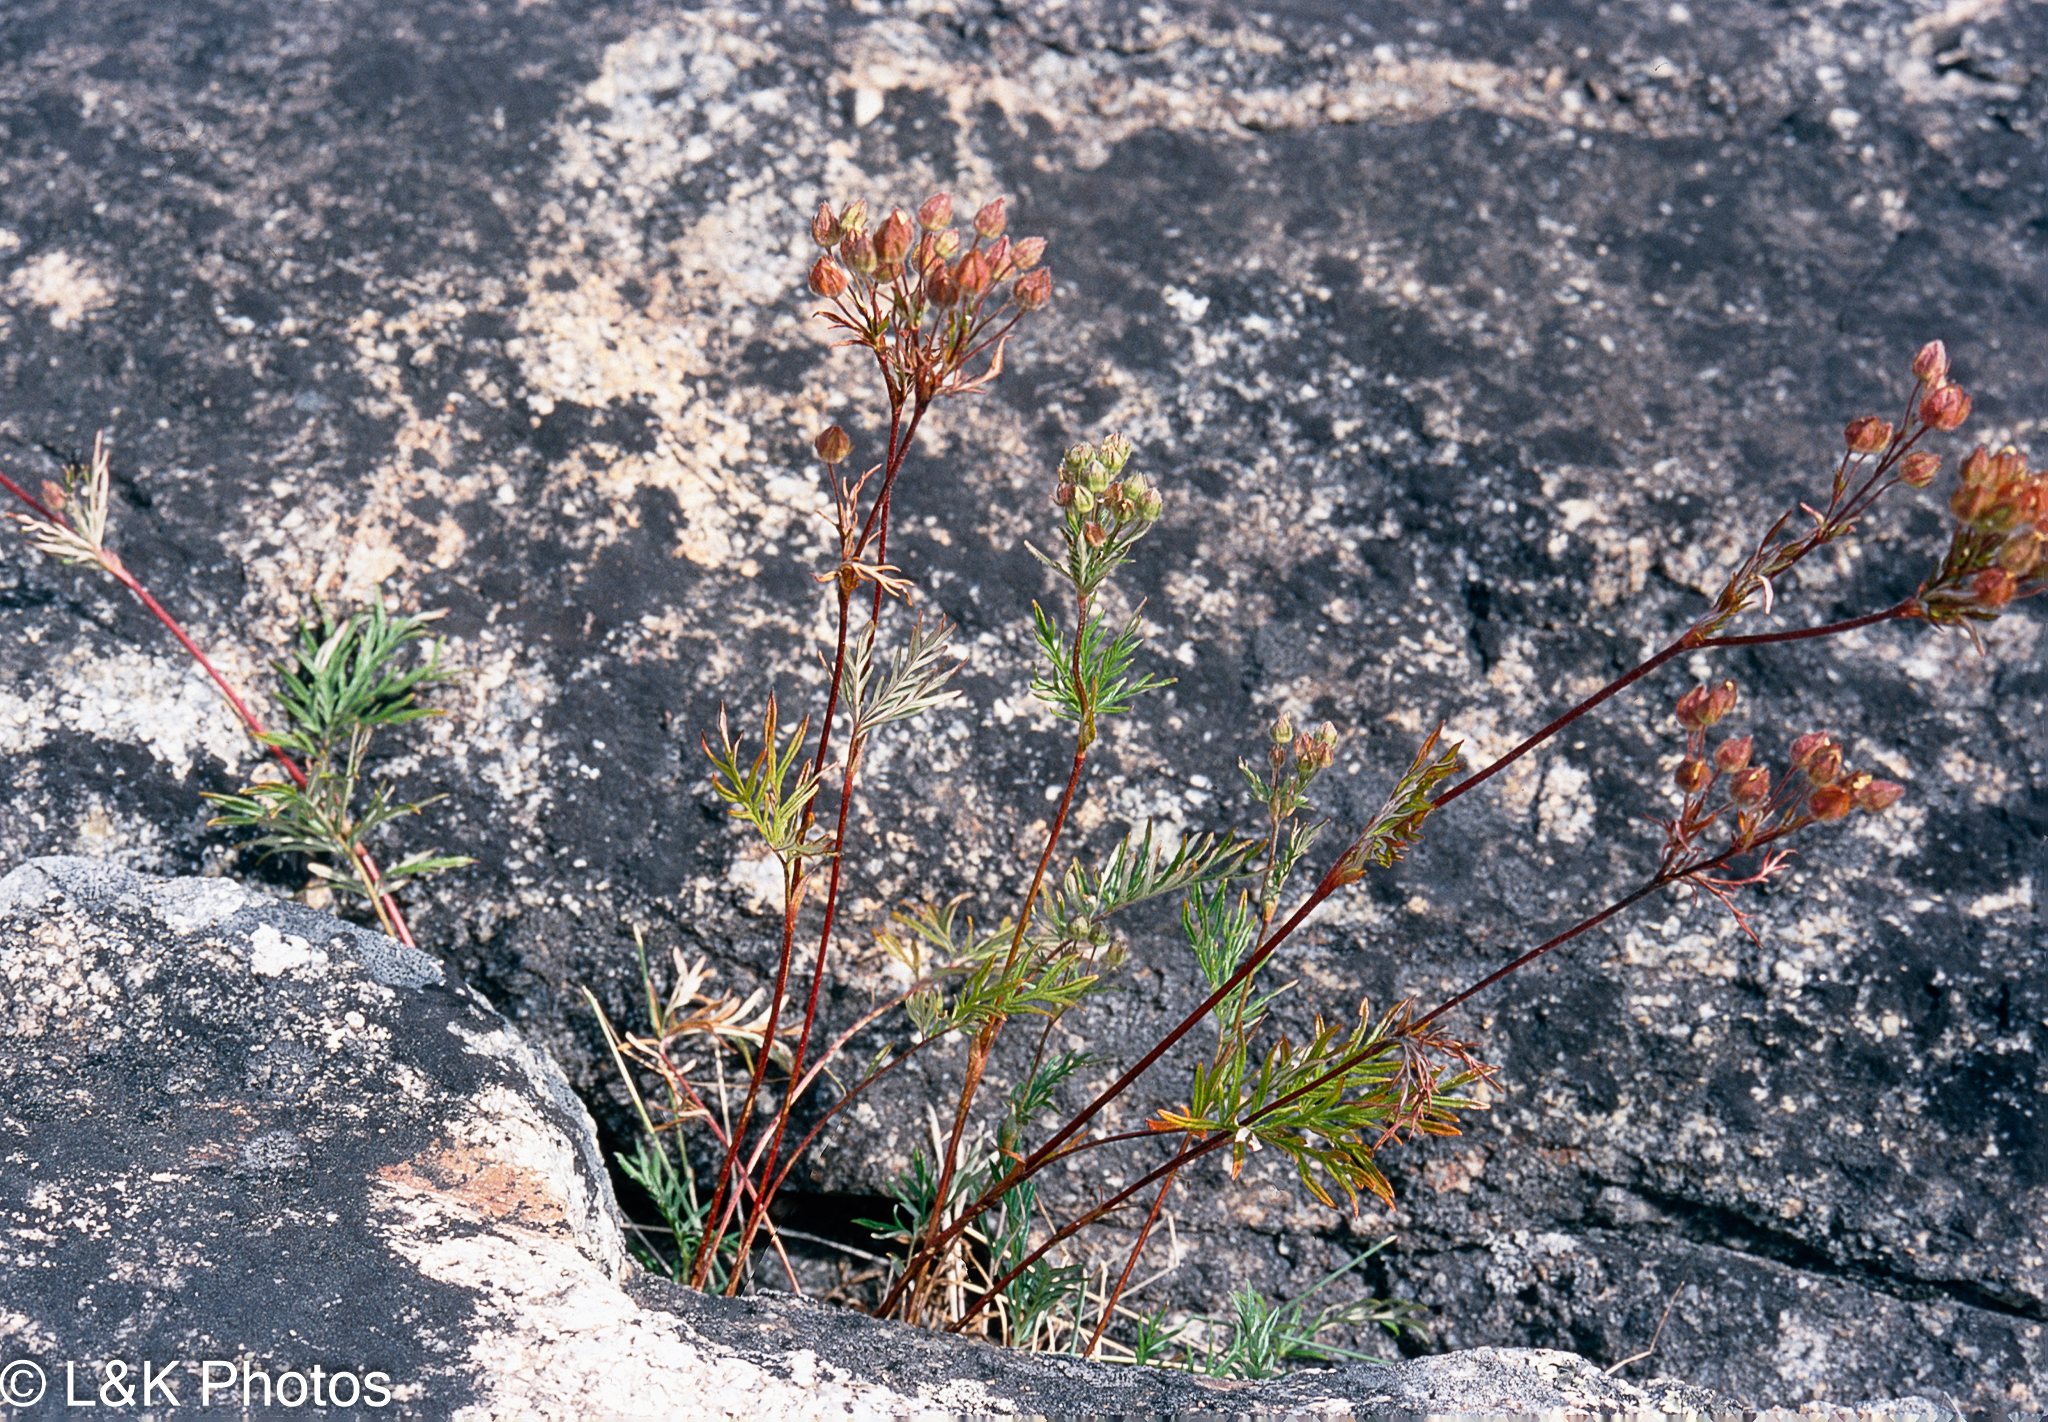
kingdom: Plantae
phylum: Tracheophyta
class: Magnoliopsida
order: Rosales
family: Rosaceae
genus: Potentilla
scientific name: Potentilla bimundorum
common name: Cut-leaved cinquefoil
